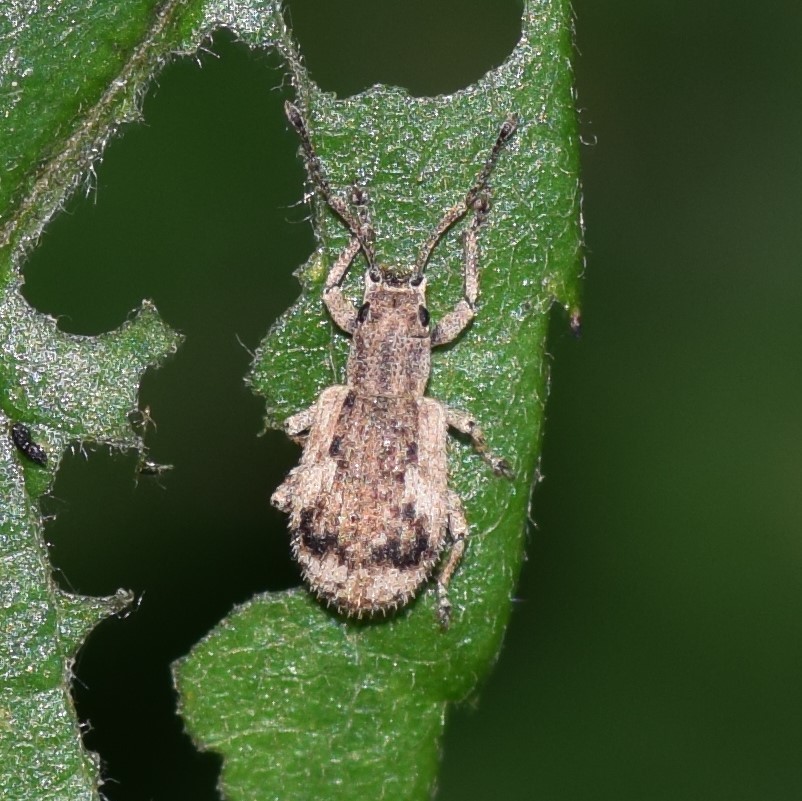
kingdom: Animalia
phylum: Arthropoda
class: Insecta
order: Coleoptera
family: Curculionidae
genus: Pseudoedophrys
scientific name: Pseudoedophrys hilleri
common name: Weevil
